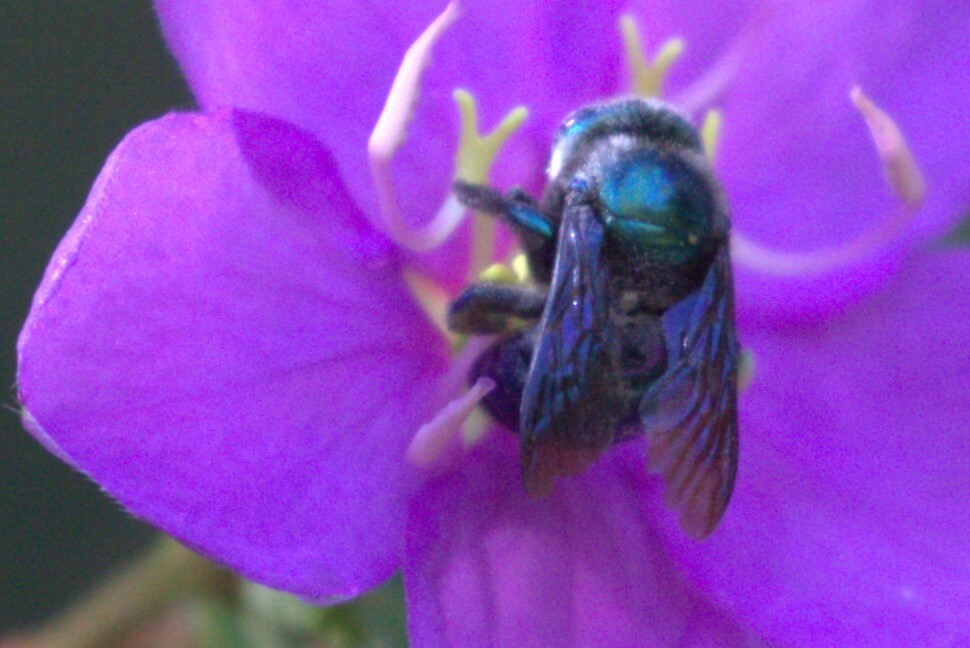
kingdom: Animalia
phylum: Arthropoda
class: Insecta
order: Hymenoptera
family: Apidae
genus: Xylocopa
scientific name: Xylocopa bombylans
